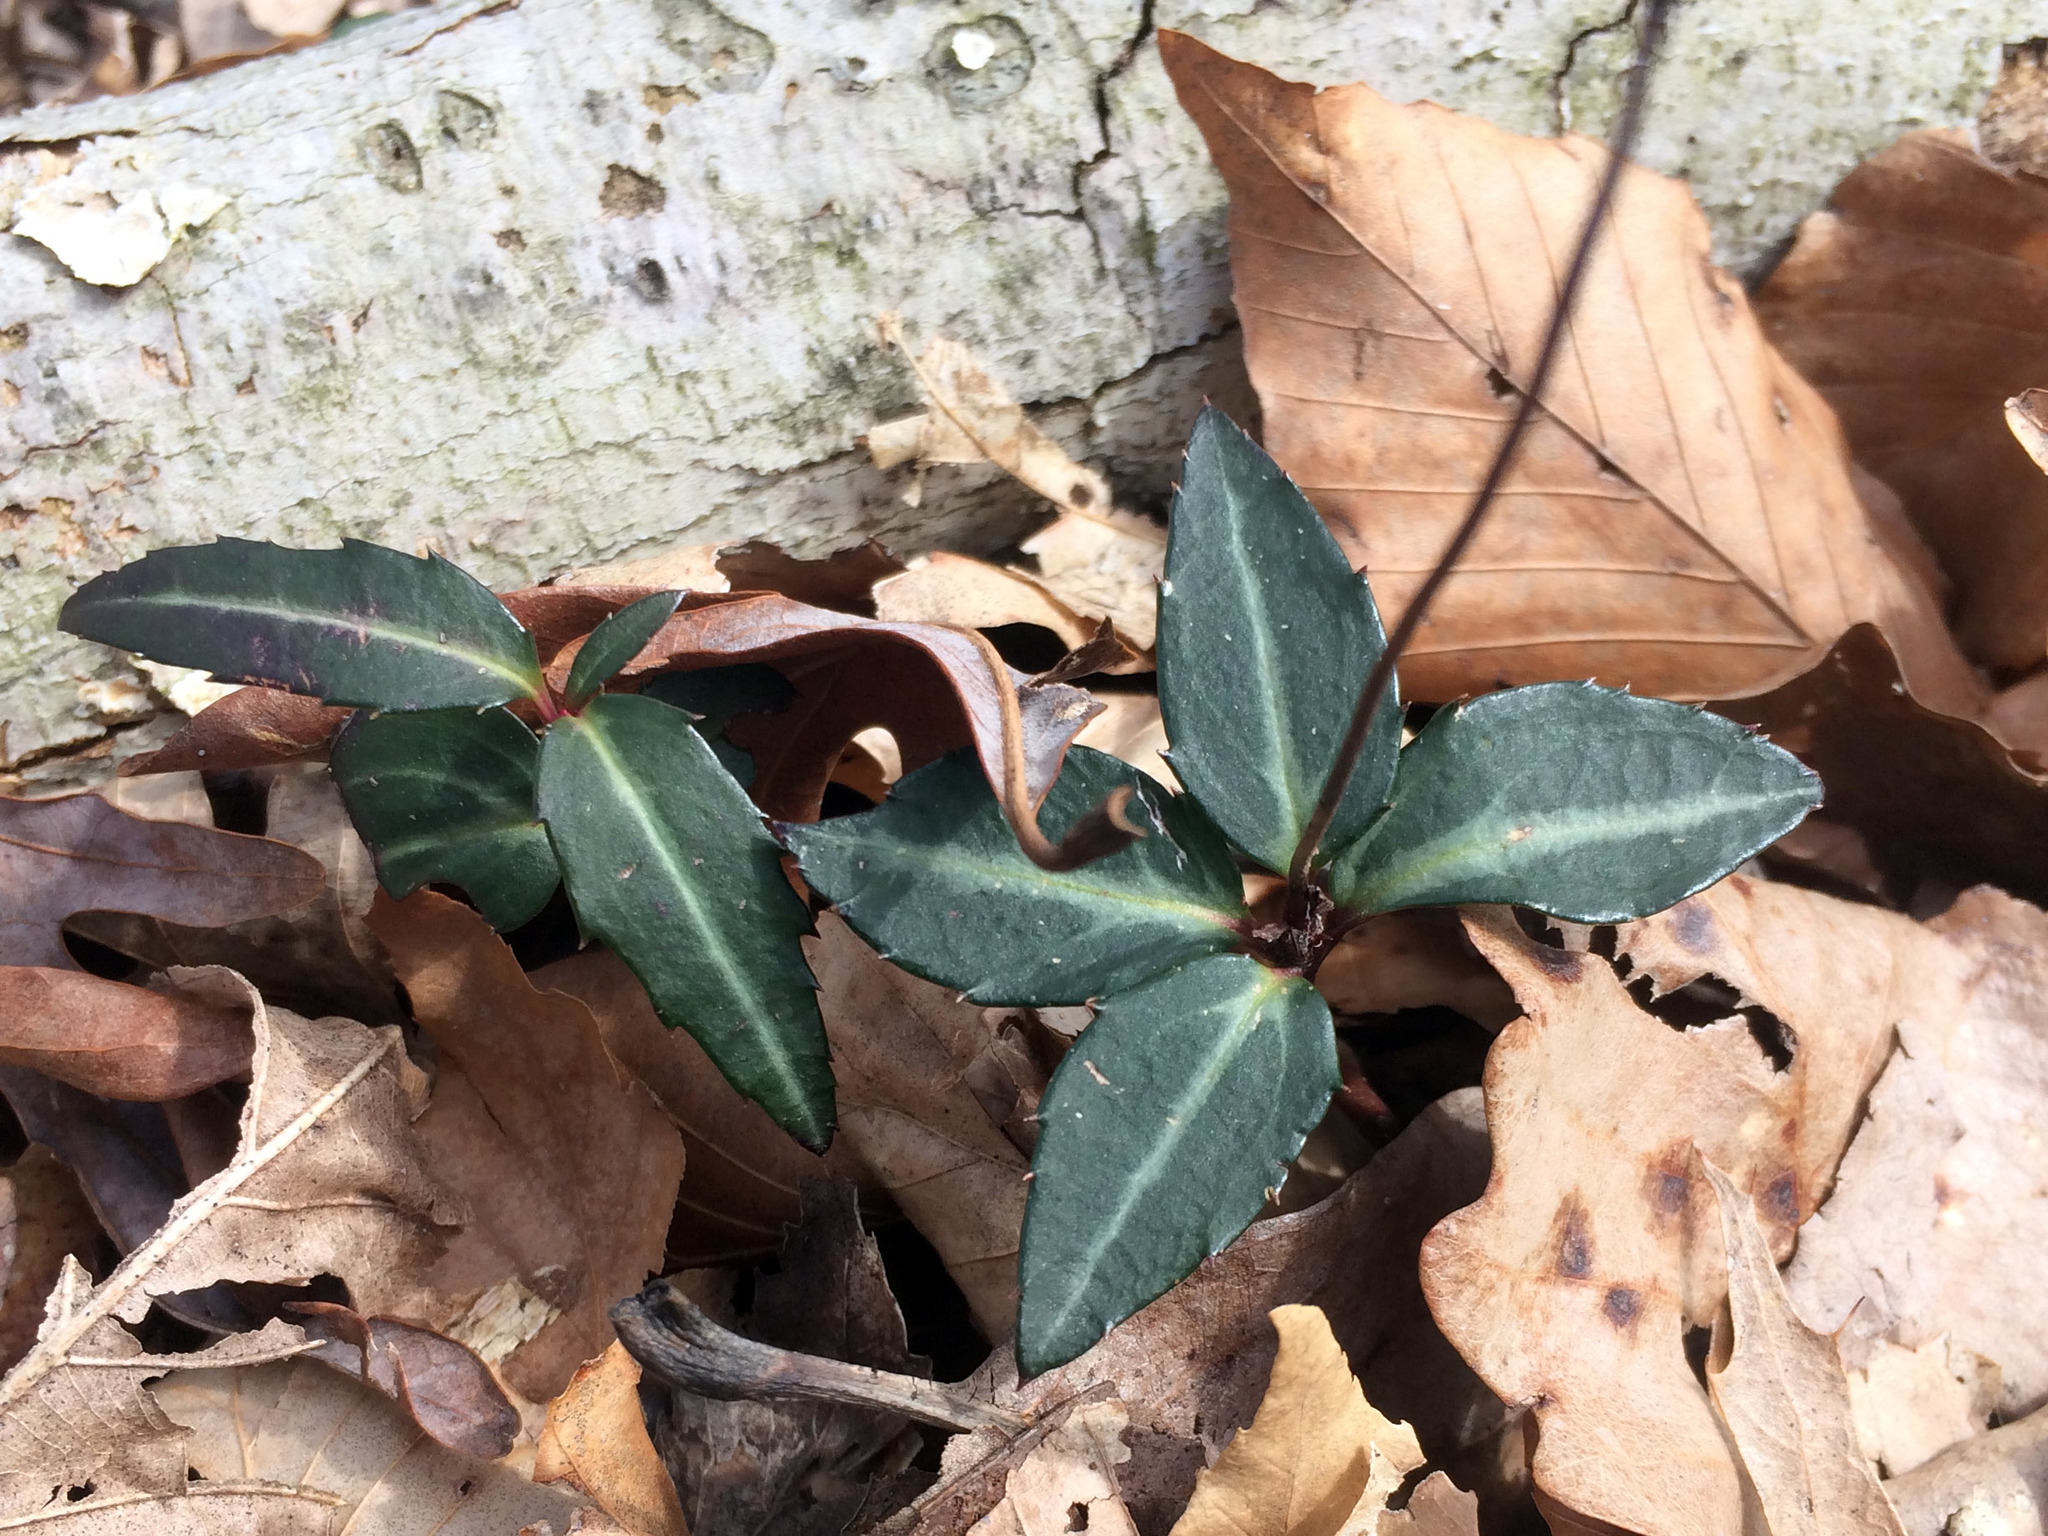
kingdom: Plantae
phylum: Tracheophyta
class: Magnoliopsida
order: Ericales
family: Ericaceae
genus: Chimaphila
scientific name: Chimaphila maculata
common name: Spotted pipsissewa
